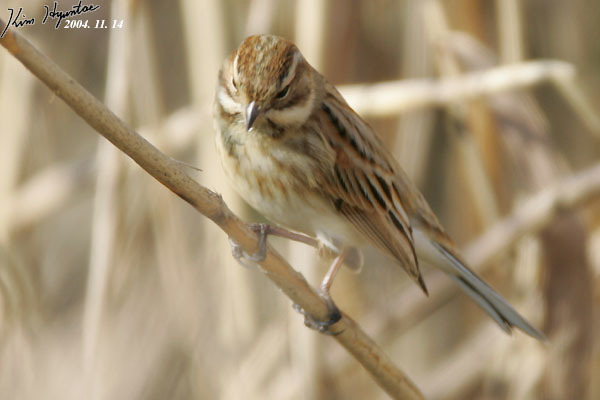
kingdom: Animalia
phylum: Chordata
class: Aves
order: Passeriformes
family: Emberizidae
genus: Emberiza
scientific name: Emberiza schoeniclus
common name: Reed bunting
